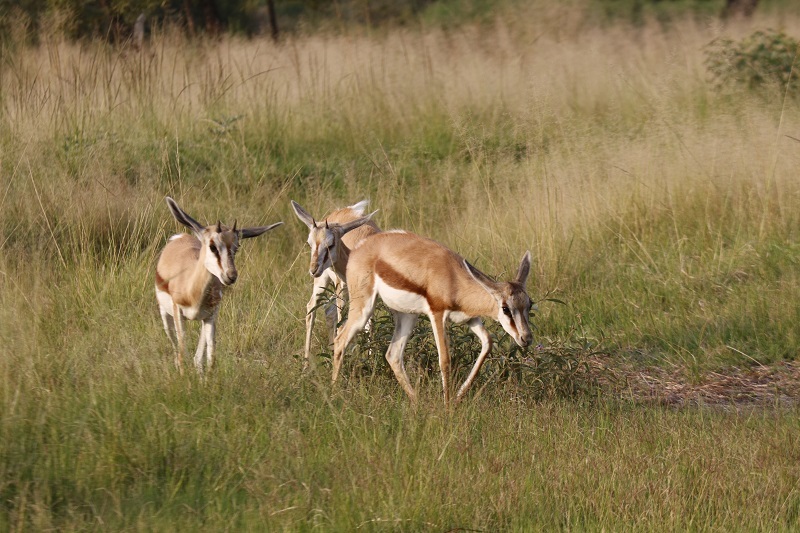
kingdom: Animalia
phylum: Chordata
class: Mammalia
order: Artiodactyla
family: Bovidae
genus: Antidorcas
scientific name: Antidorcas marsupialis
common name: Springbok
